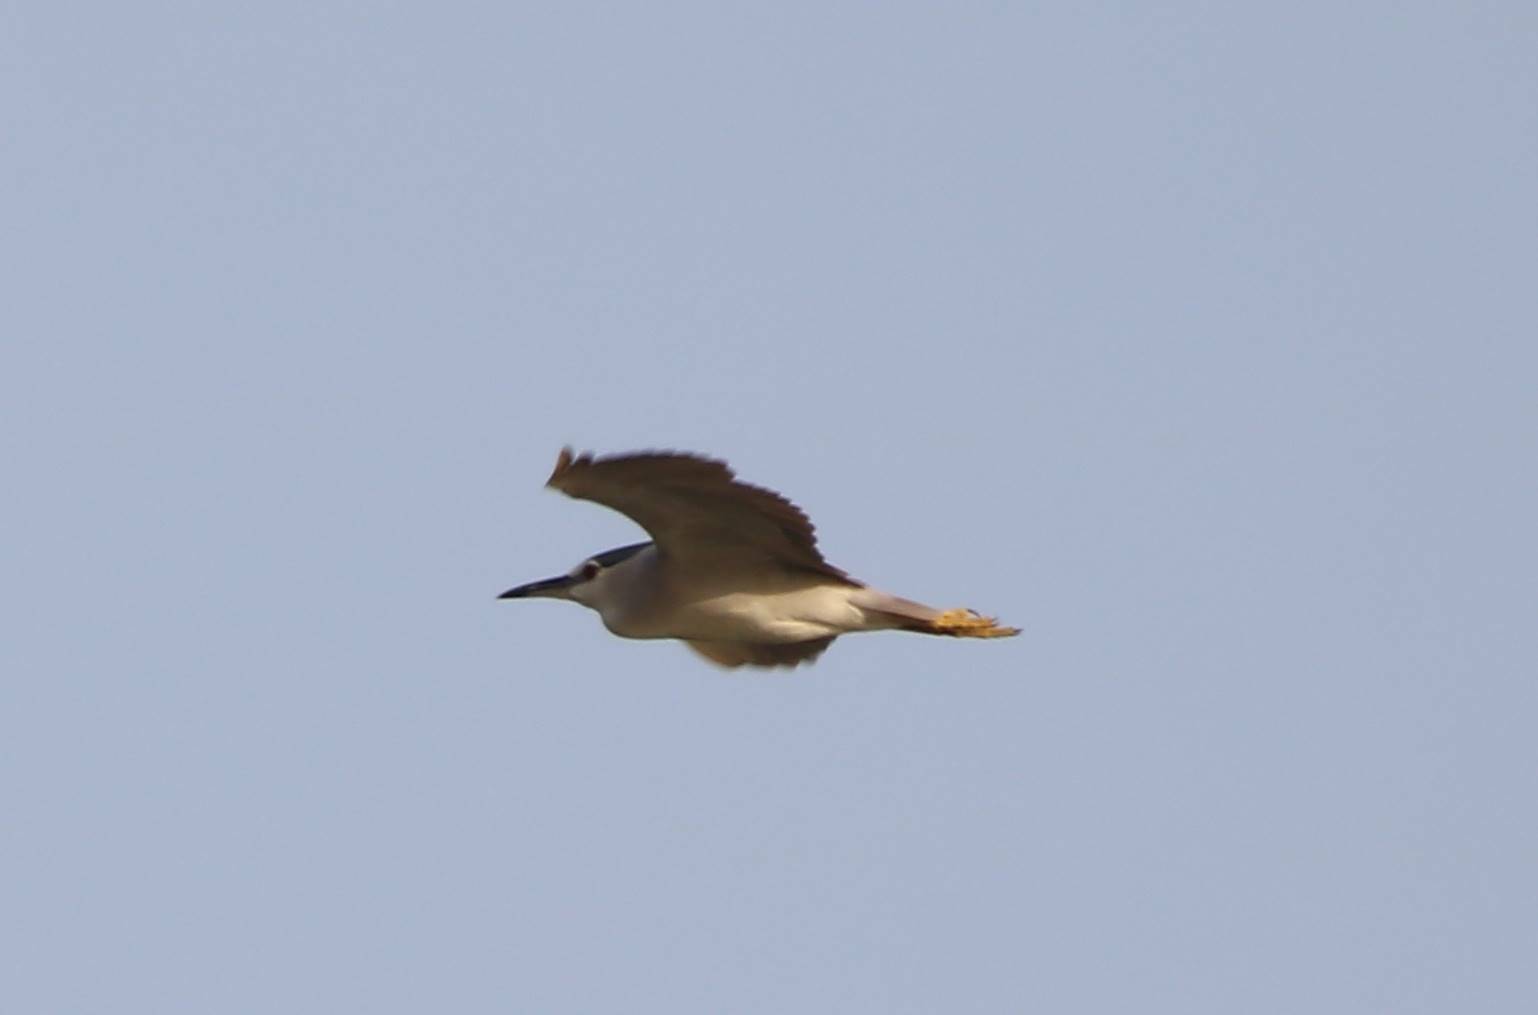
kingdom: Animalia
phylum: Chordata
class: Aves
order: Pelecaniformes
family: Ardeidae
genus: Nycticorax
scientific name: Nycticorax nycticorax
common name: Black-crowned night heron
